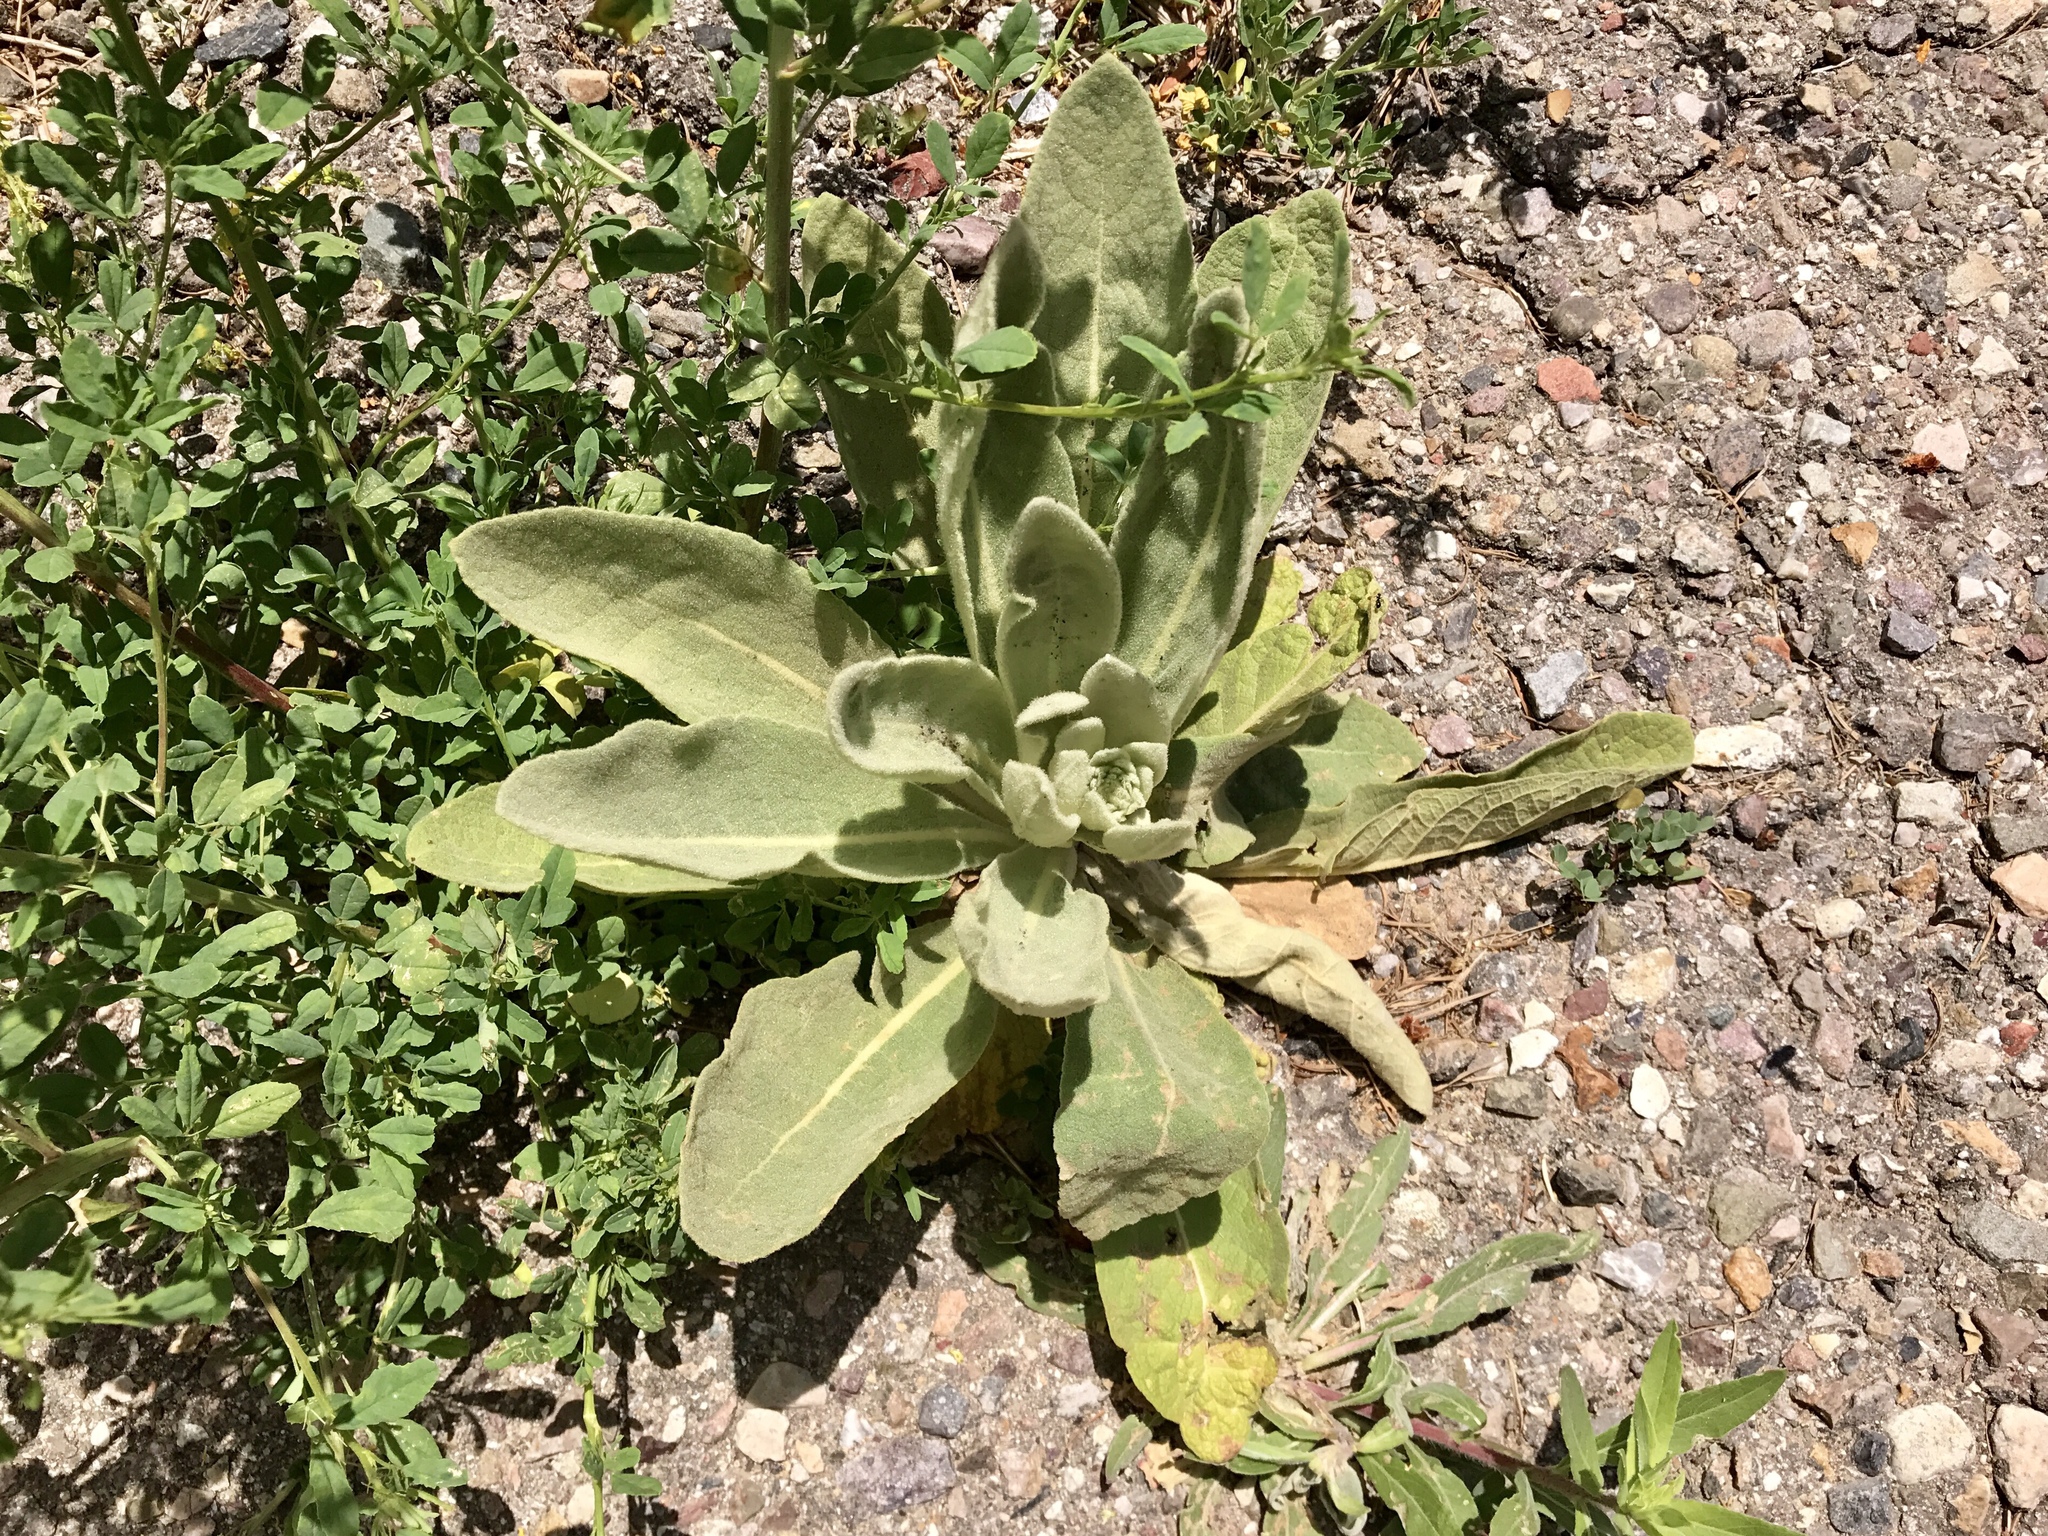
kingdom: Plantae
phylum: Tracheophyta
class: Magnoliopsida
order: Lamiales
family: Scrophulariaceae
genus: Verbascum
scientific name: Verbascum thapsus
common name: Common mullein
